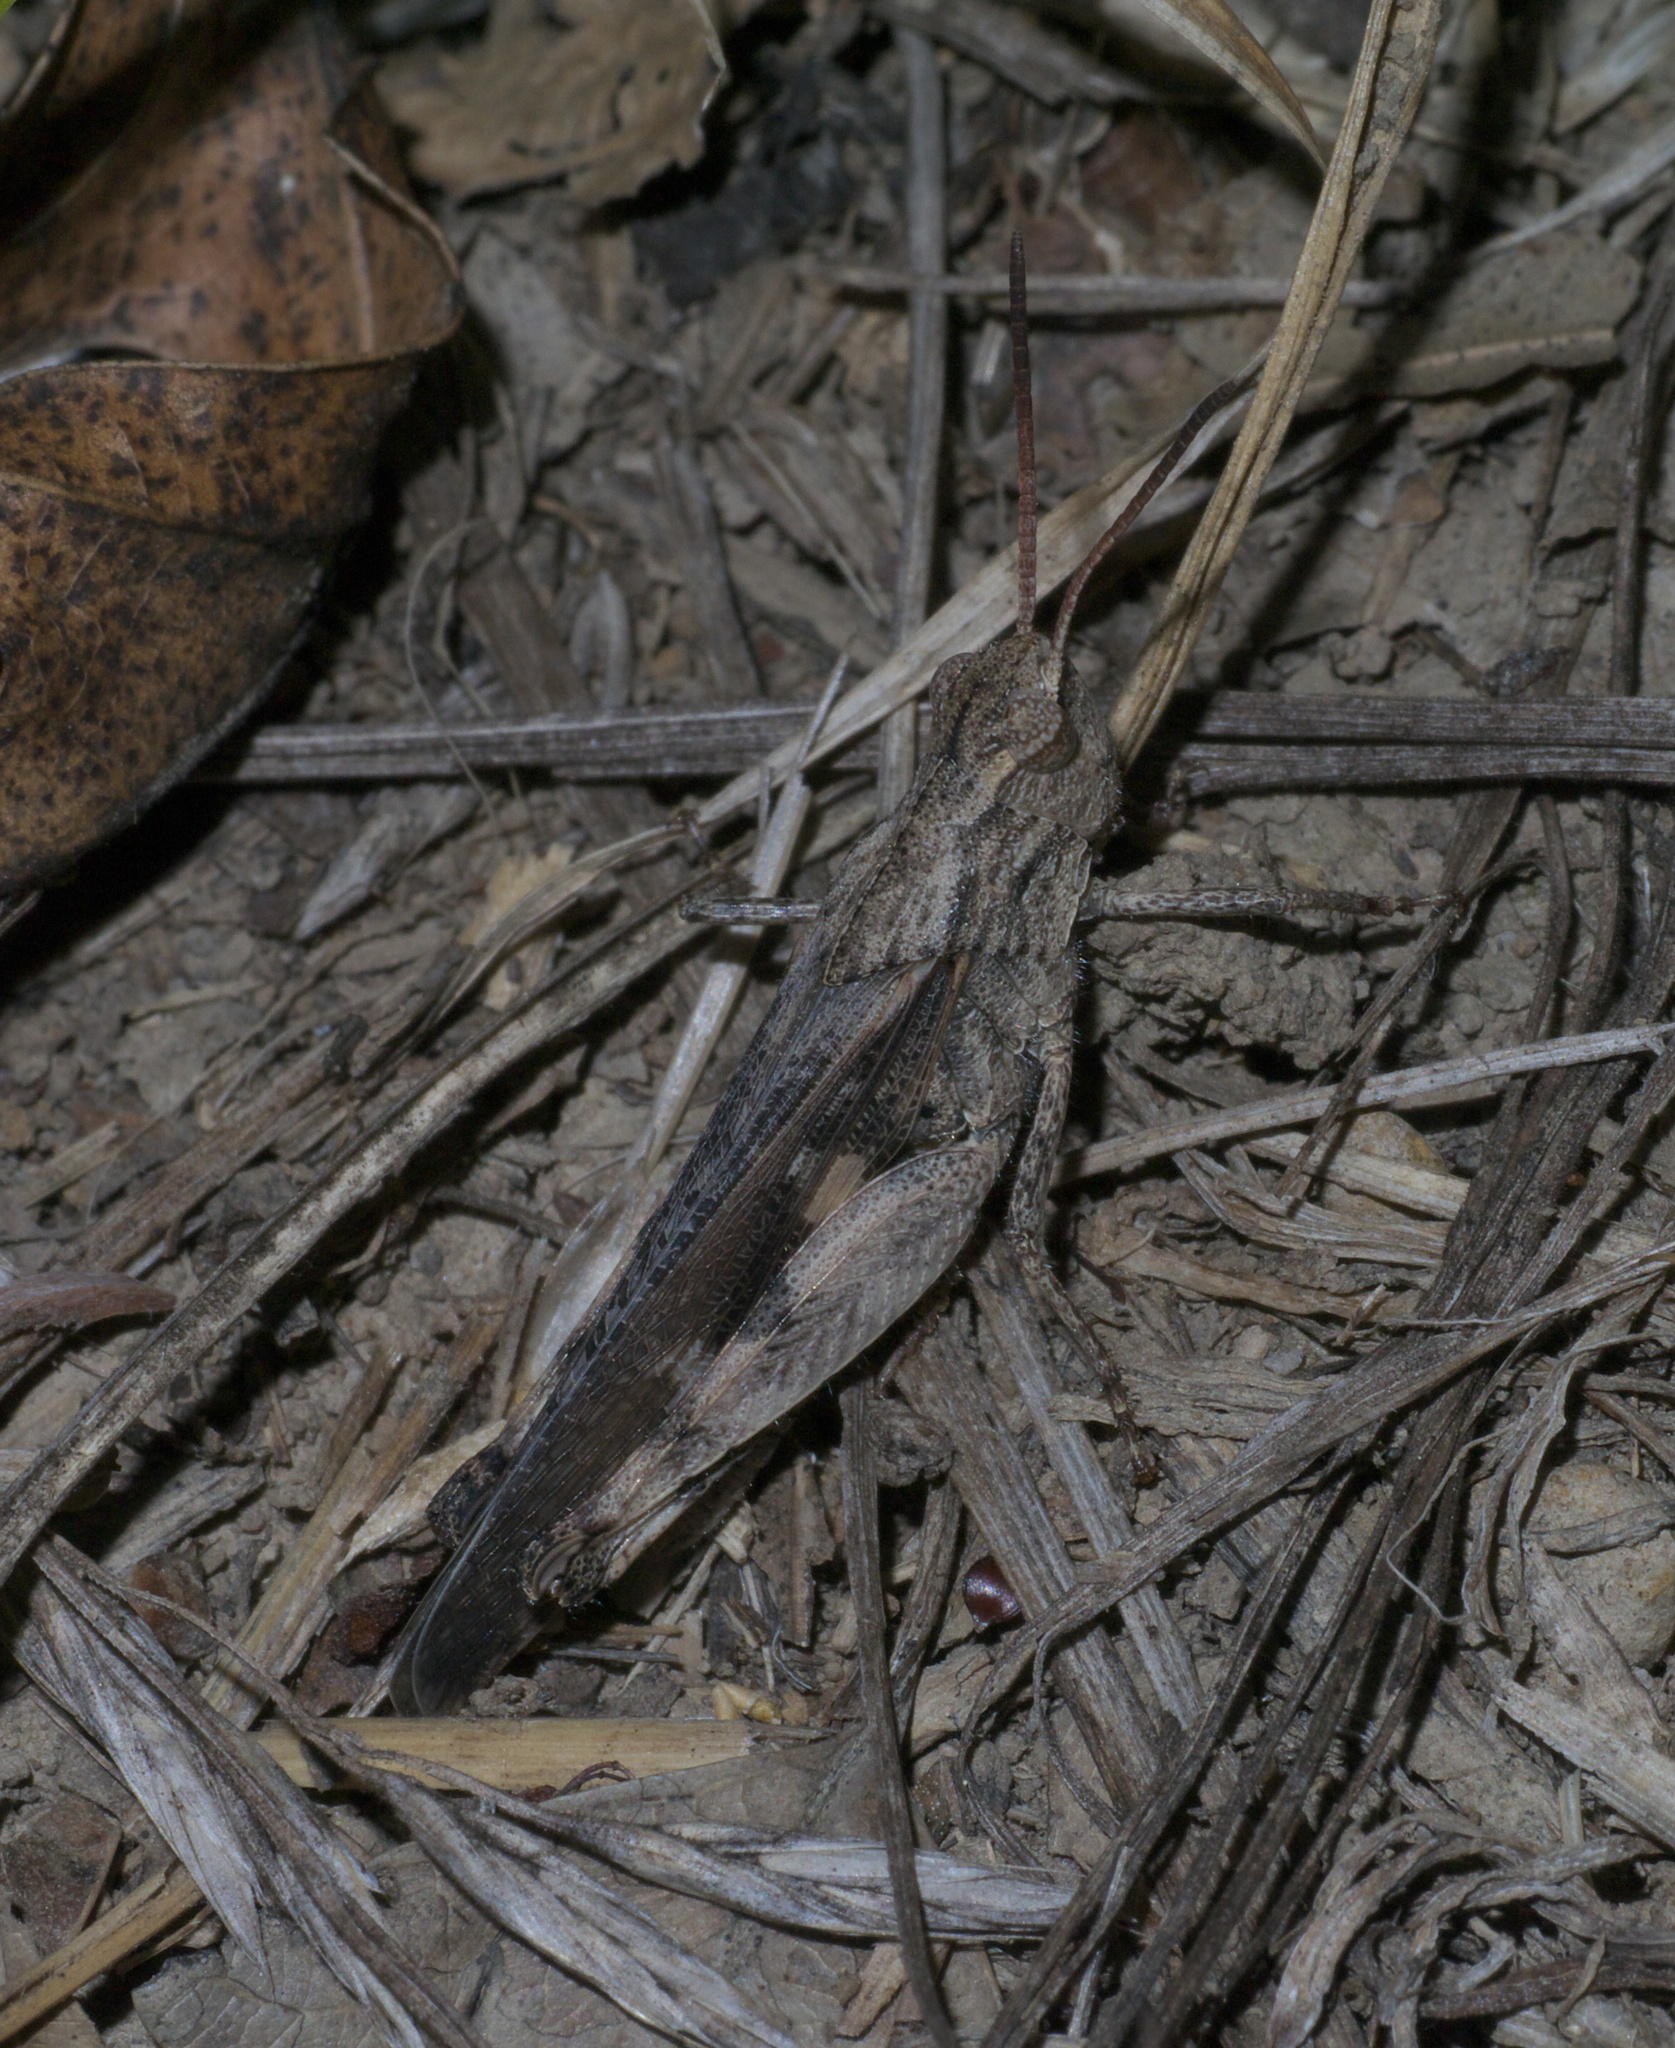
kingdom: Animalia
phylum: Arthropoda
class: Insecta
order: Orthoptera
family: Acrididae
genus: Chortophaga
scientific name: Chortophaga viridifasciata
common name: Green-striped grasshopper
